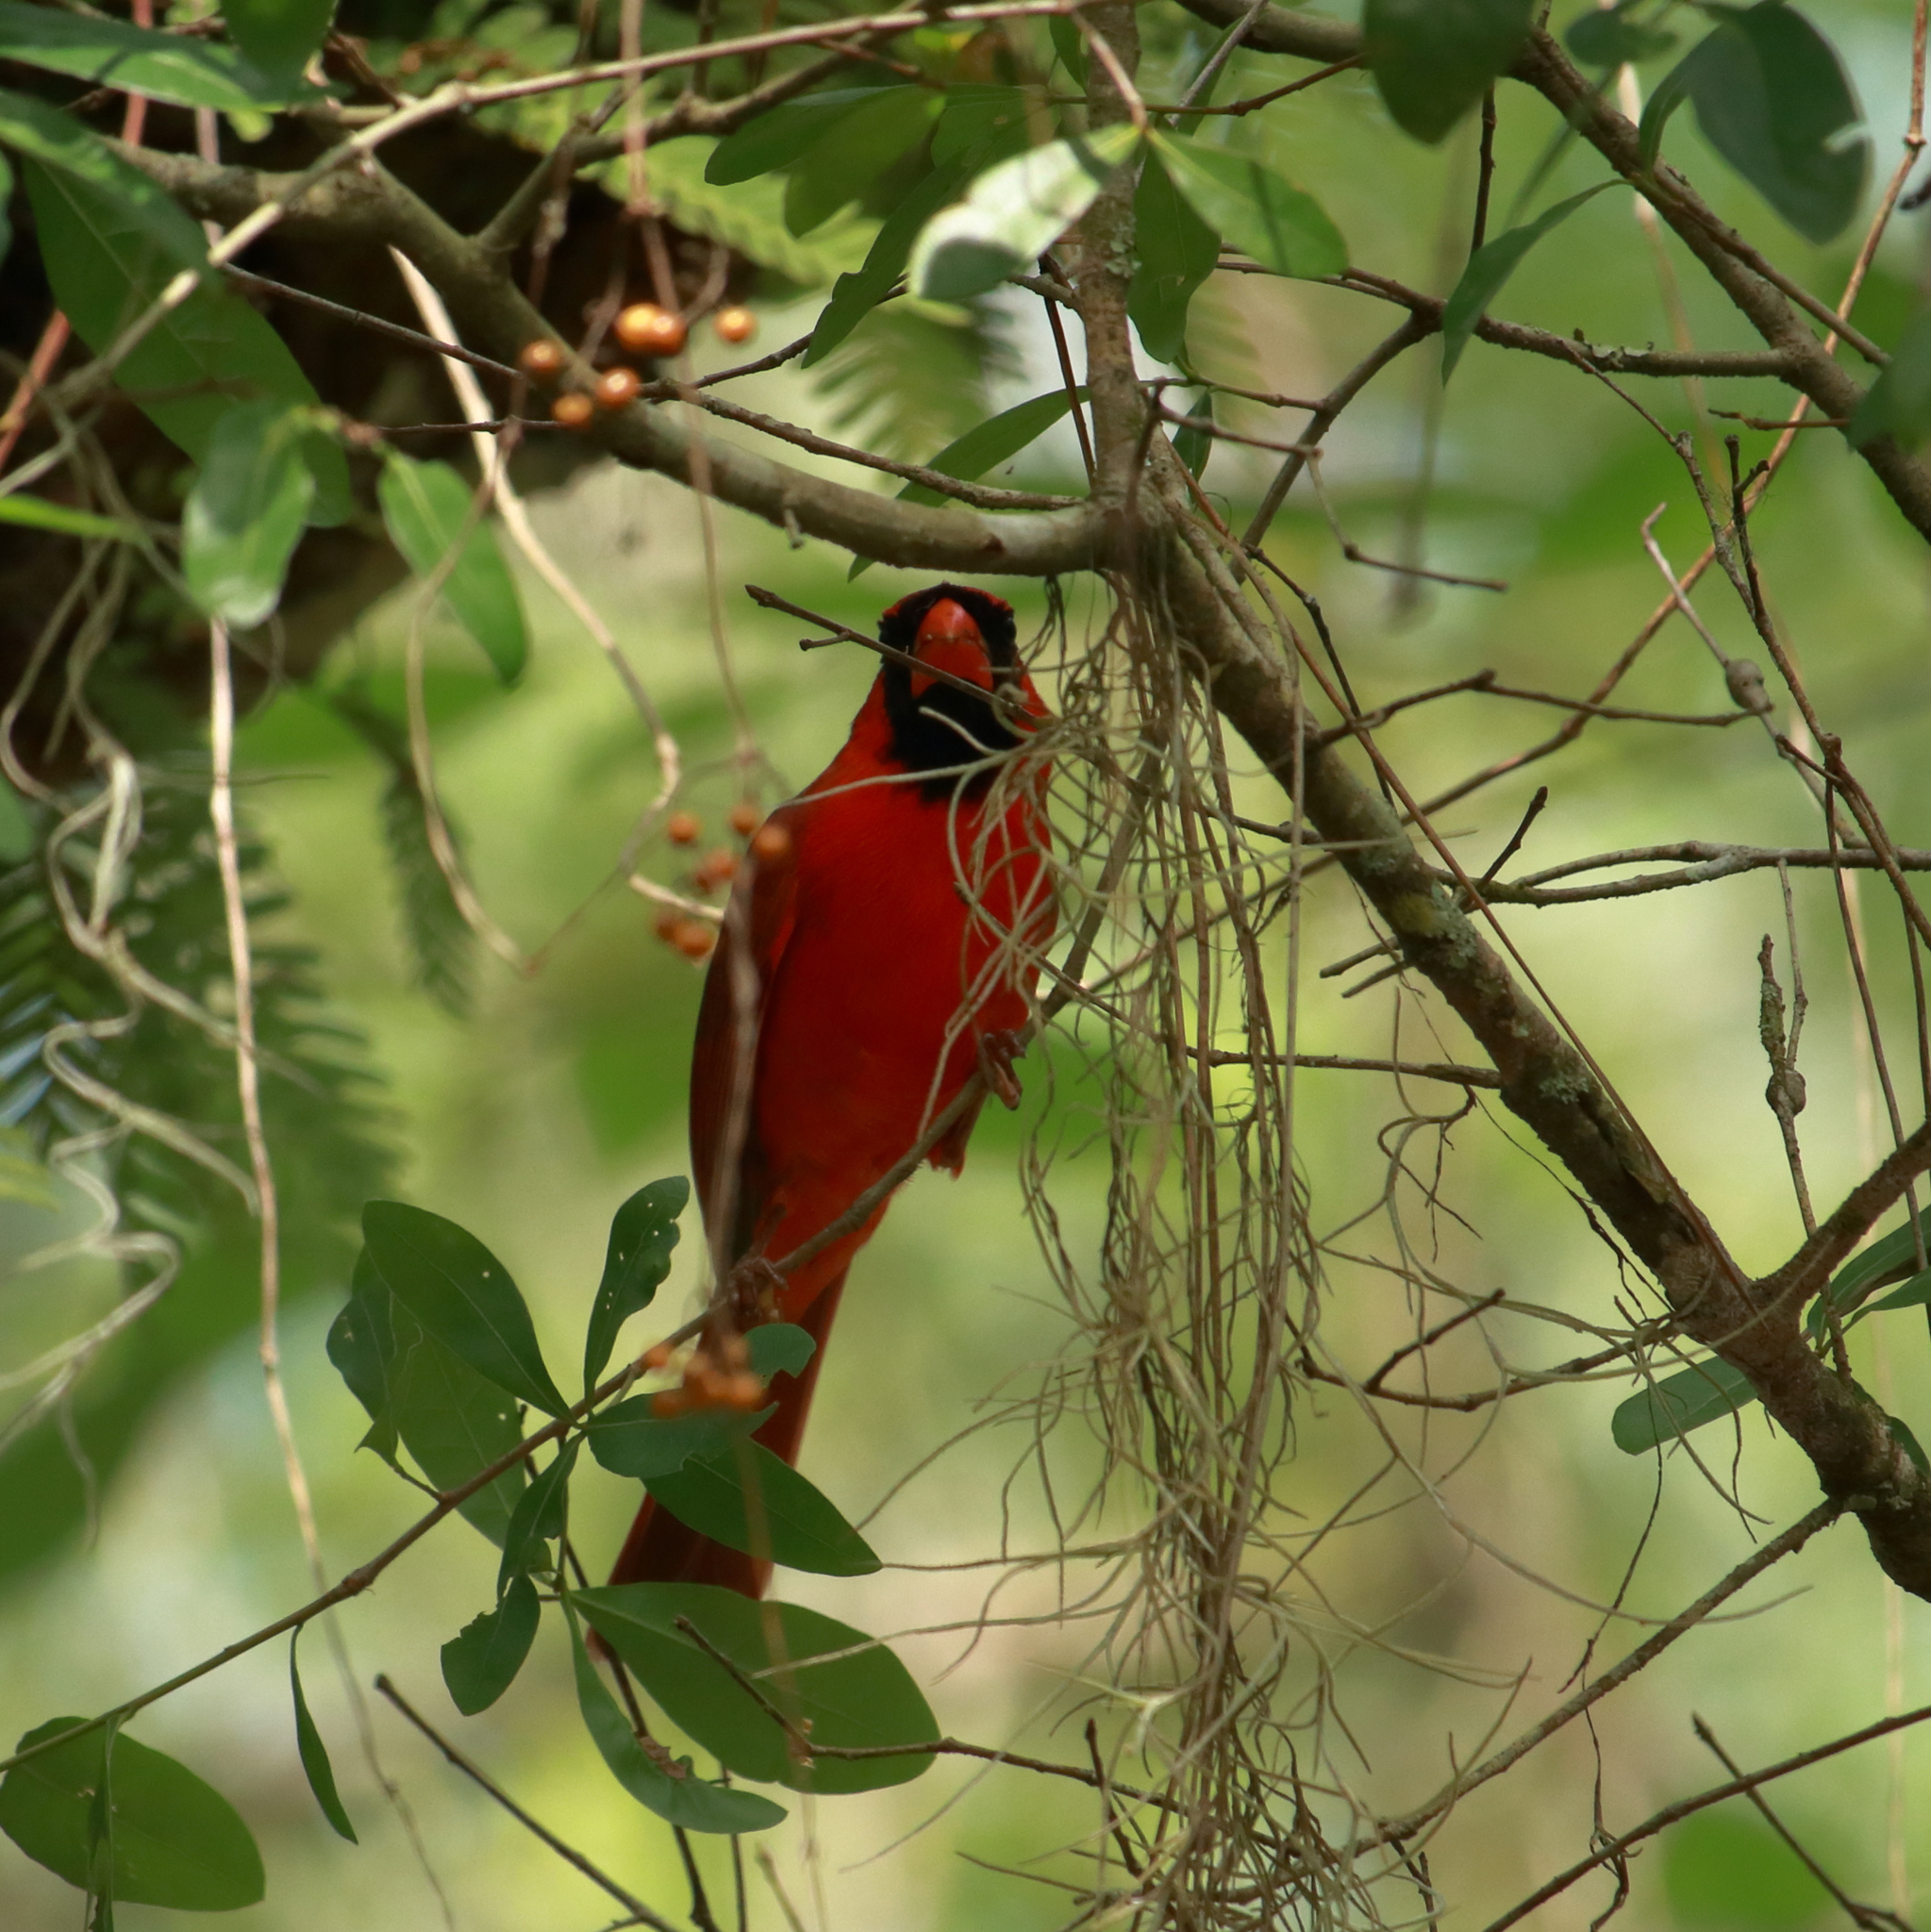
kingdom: Animalia
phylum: Chordata
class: Aves
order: Passeriformes
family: Cardinalidae
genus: Cardinalis
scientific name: Cardinalis cardinalis
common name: Northern cardinal
